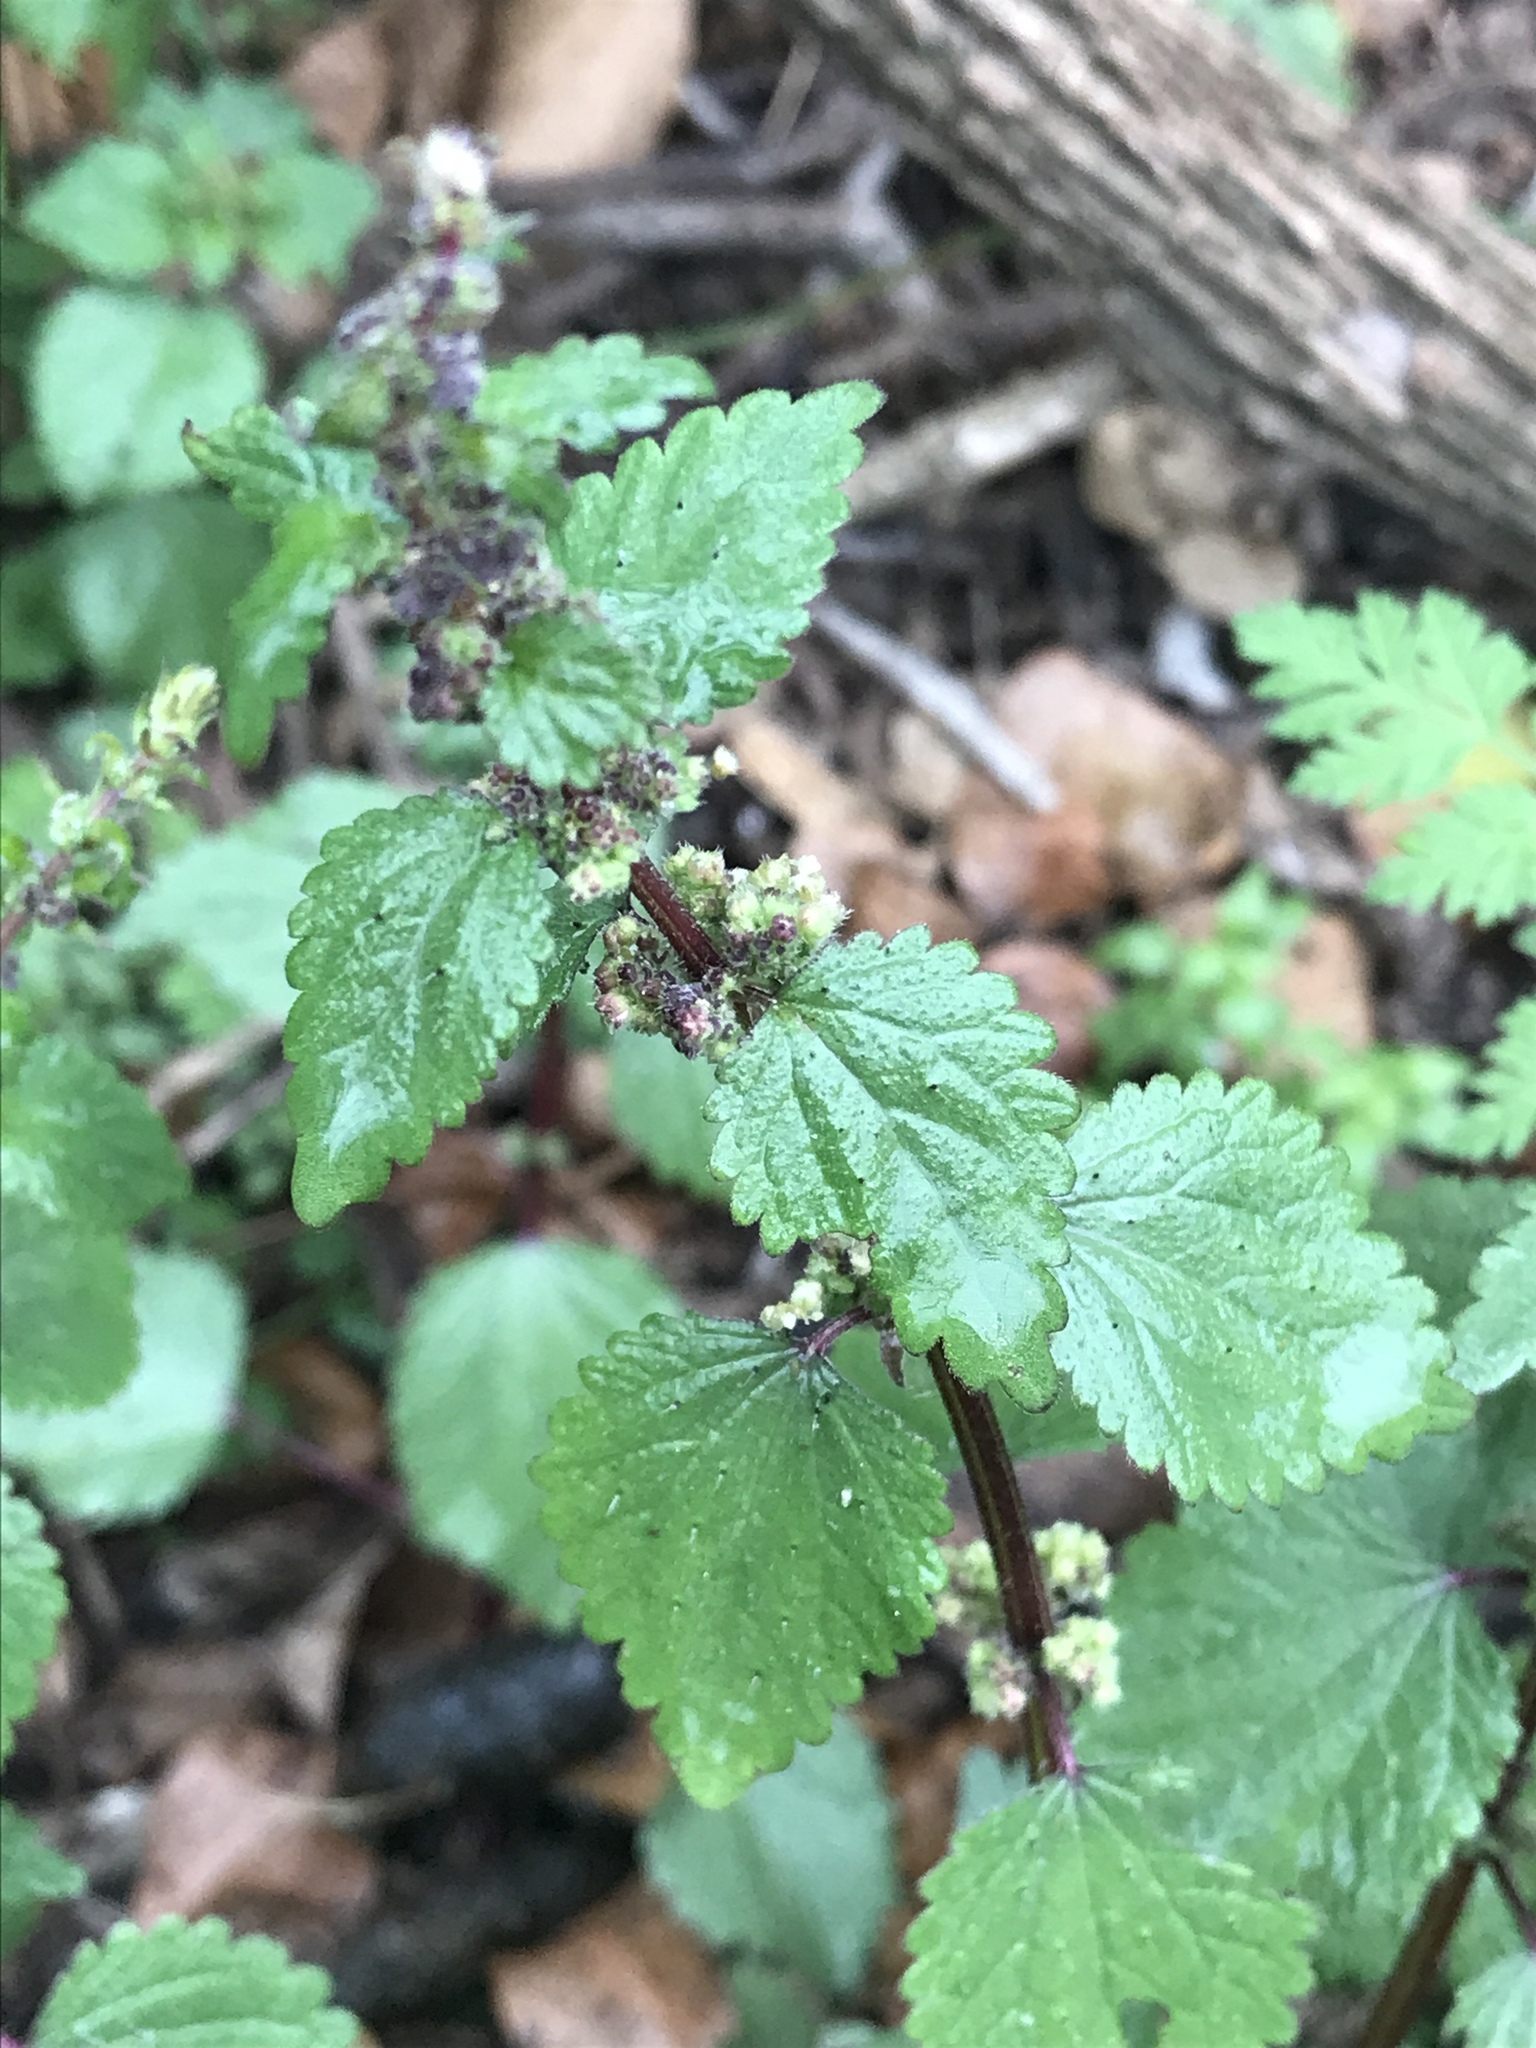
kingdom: Plantae
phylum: Tracheophyta
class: Magnoliopsida
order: Rosales
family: Urticaceae
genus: Urtica
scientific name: Urtica chamaedryoides
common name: Heart-leaf nettle
